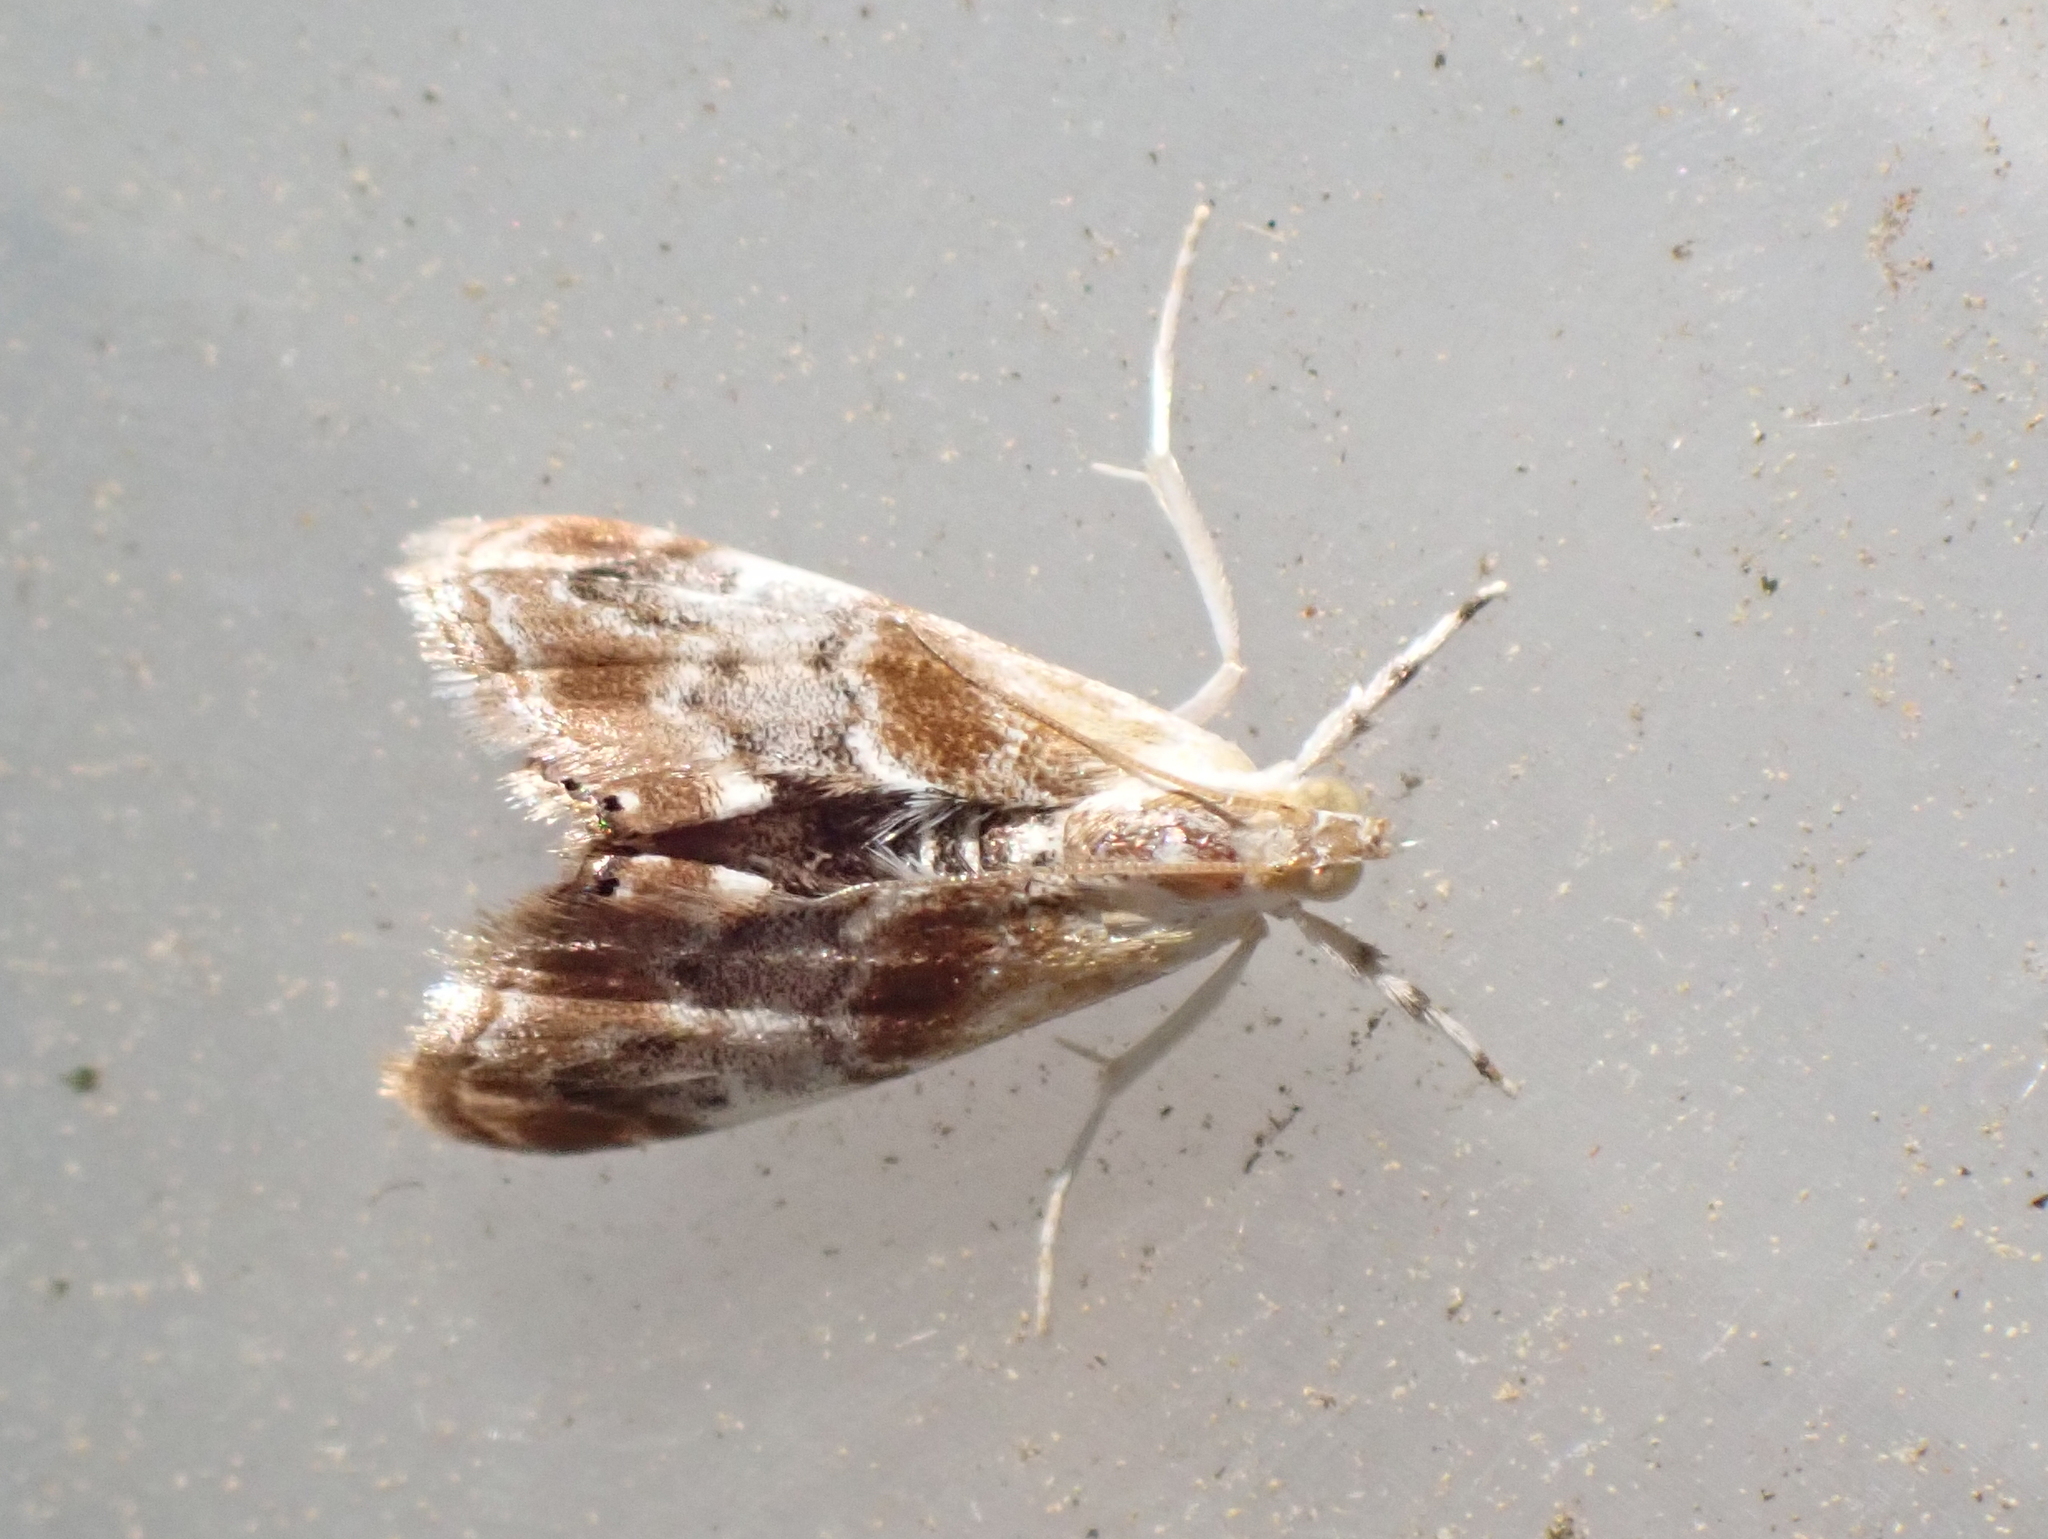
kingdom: Animalia
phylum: Arthropoda
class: Insecta
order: Lepidoptera
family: Crambidae
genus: Dicymolomia
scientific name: Dicymolomia julianalis
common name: Julia's dicymolomia moth
